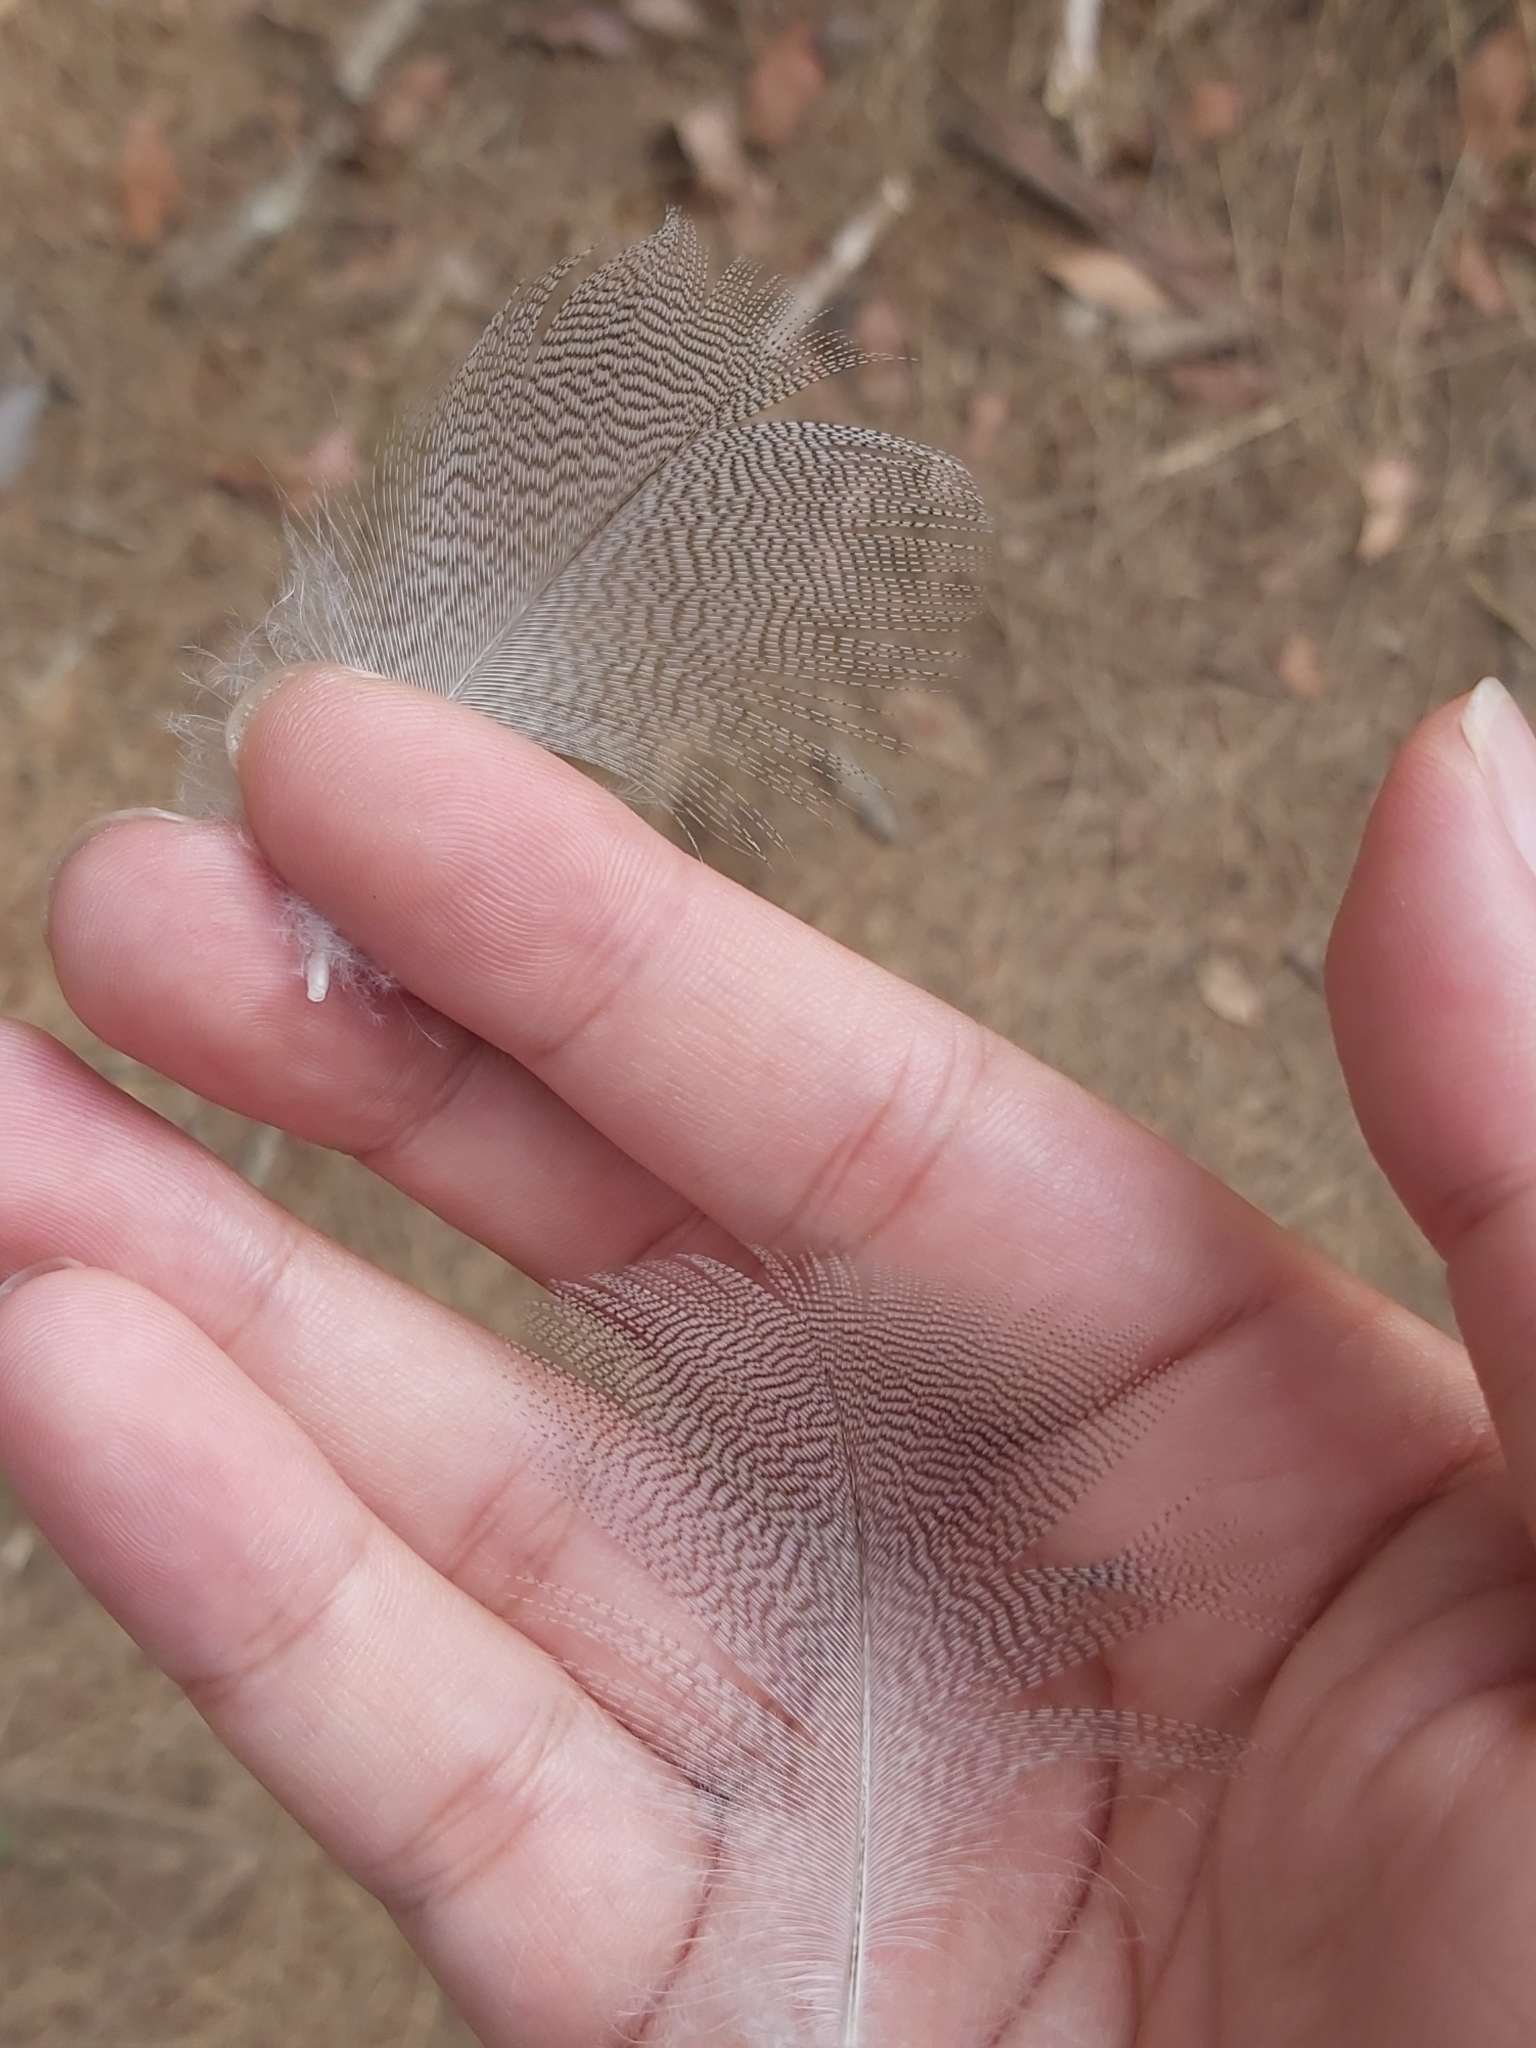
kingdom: Animalia
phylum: Chordata
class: Aves
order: Anseriformes
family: Anatidae
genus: Chenonetta
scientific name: Chenonetta jubata
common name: Maned duck
